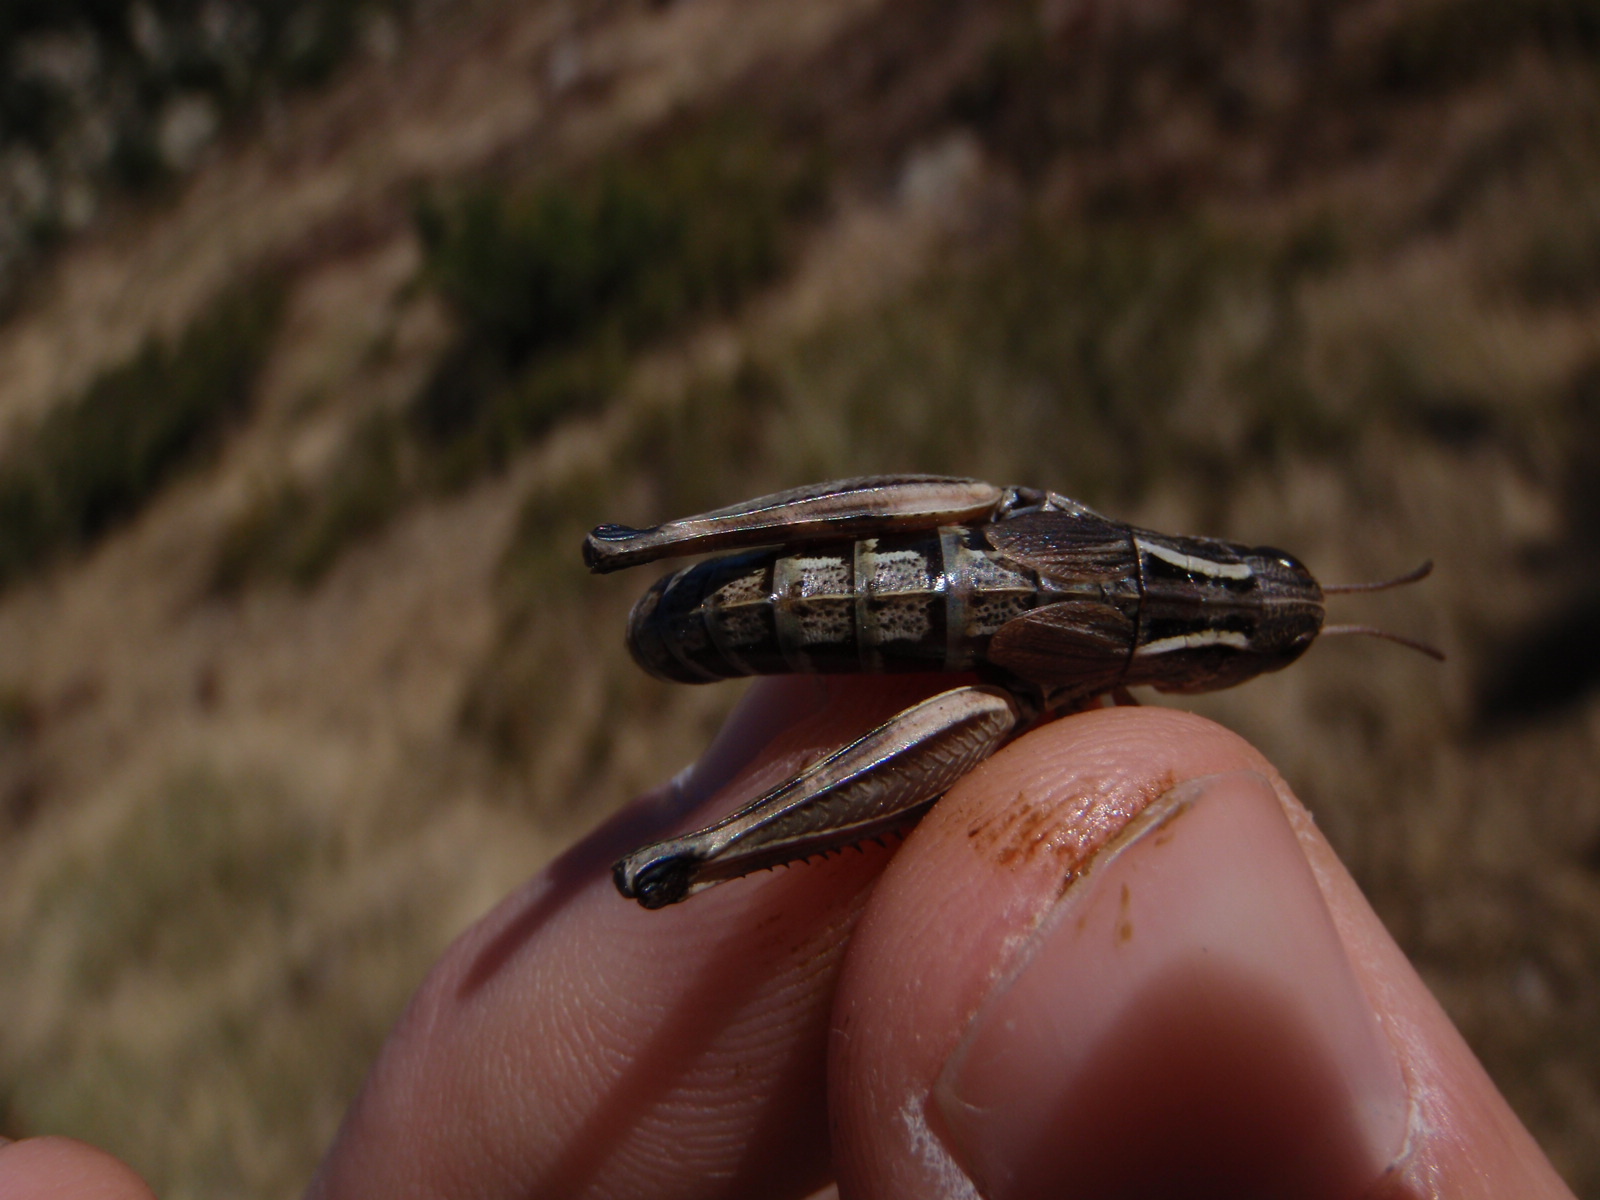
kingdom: Animalia
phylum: Arthropoda
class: Insecta
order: Orthoptera
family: Acrididae
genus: Gomphoceridius
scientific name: Gomphoceridius brevipenne
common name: Pyrenean short-winged grasshopper
